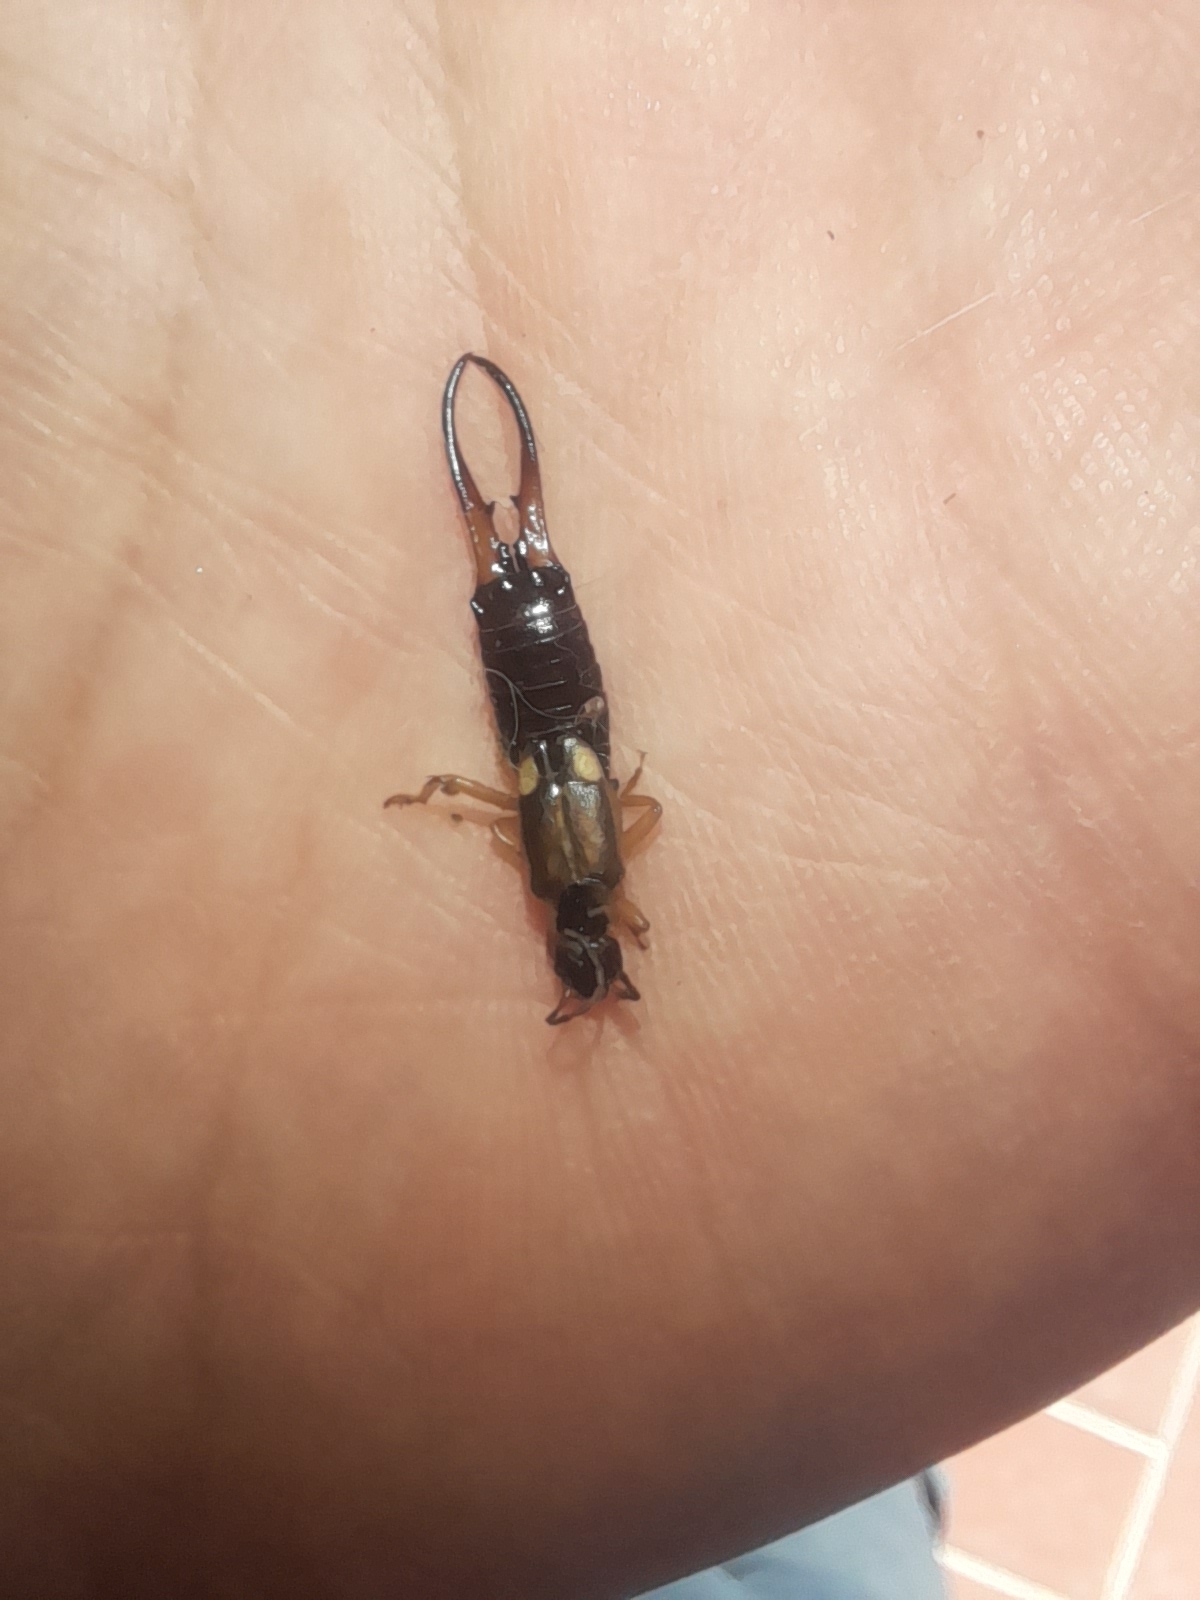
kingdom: Animalia
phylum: Arthropoda
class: Insecta
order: Dermaptera
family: Forficulidae
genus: Forficula
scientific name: Forficula
